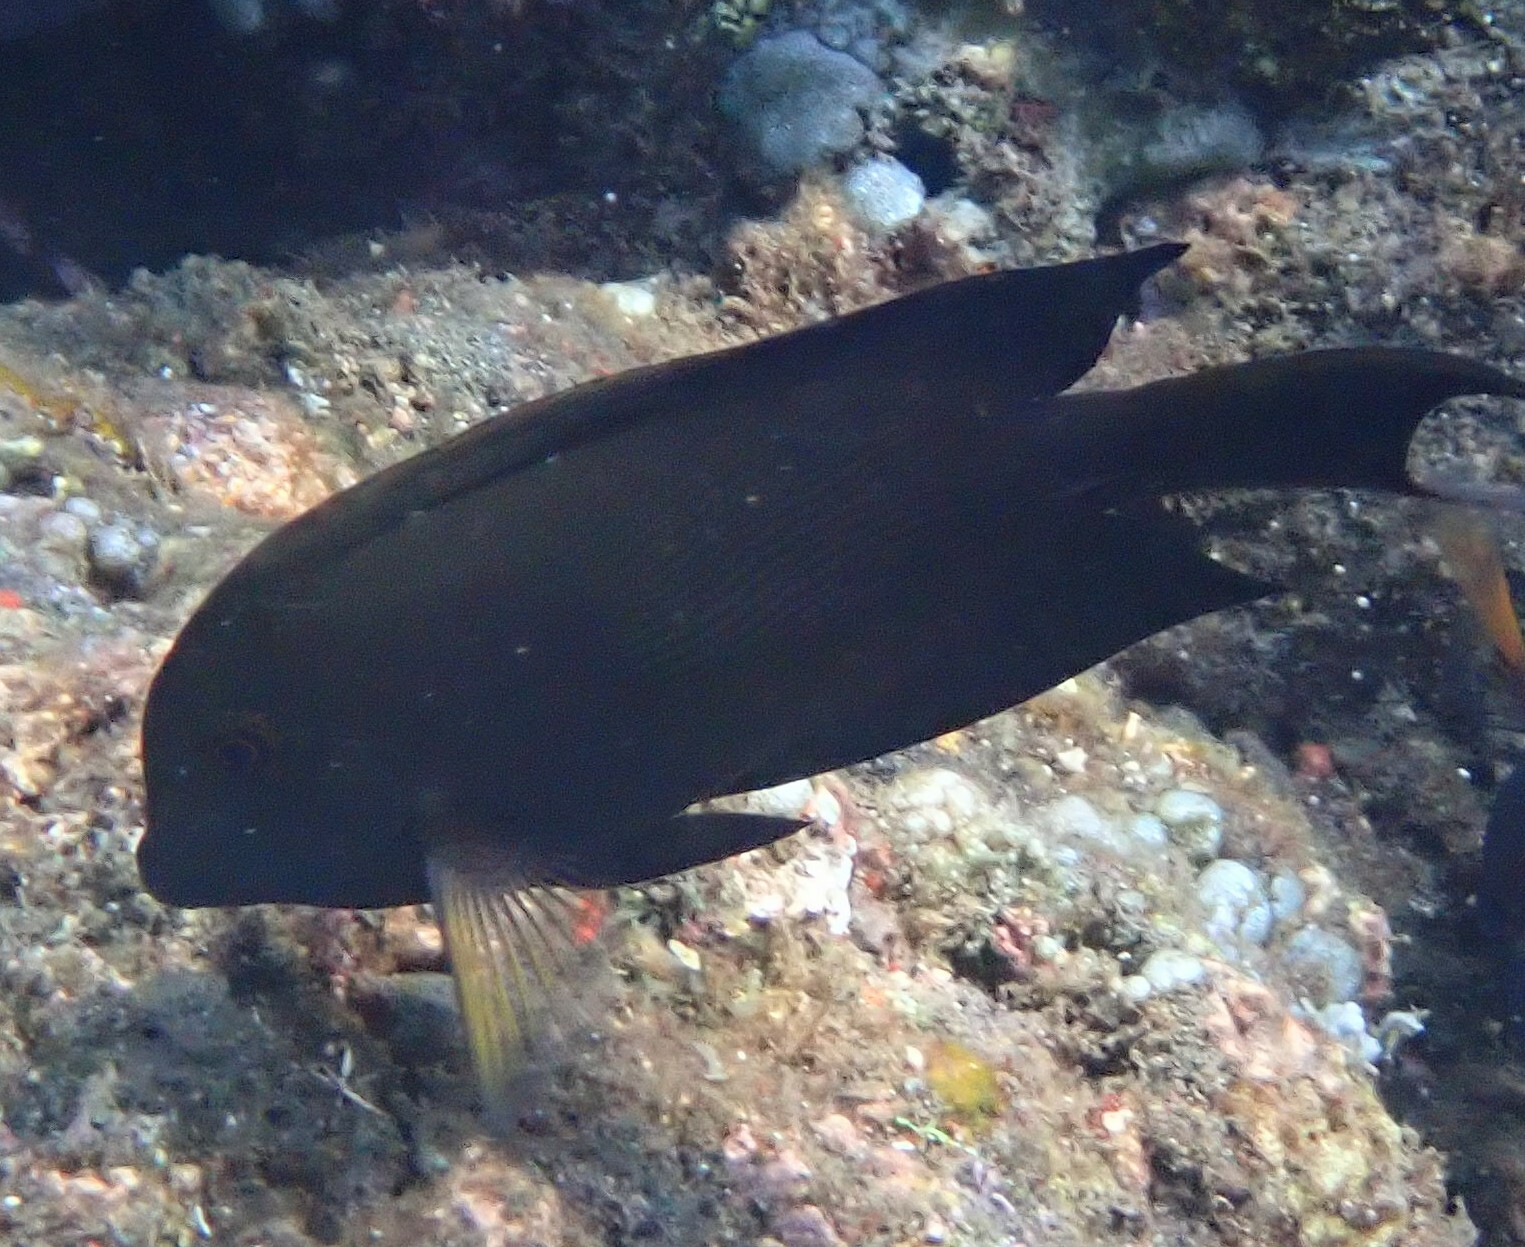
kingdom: Animalia
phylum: Chordata
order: Perciformes
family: Acanthuridae
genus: Ctenochaetus
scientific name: Ctenochaetus striatus
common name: Bristle-toothed surgeonfish
